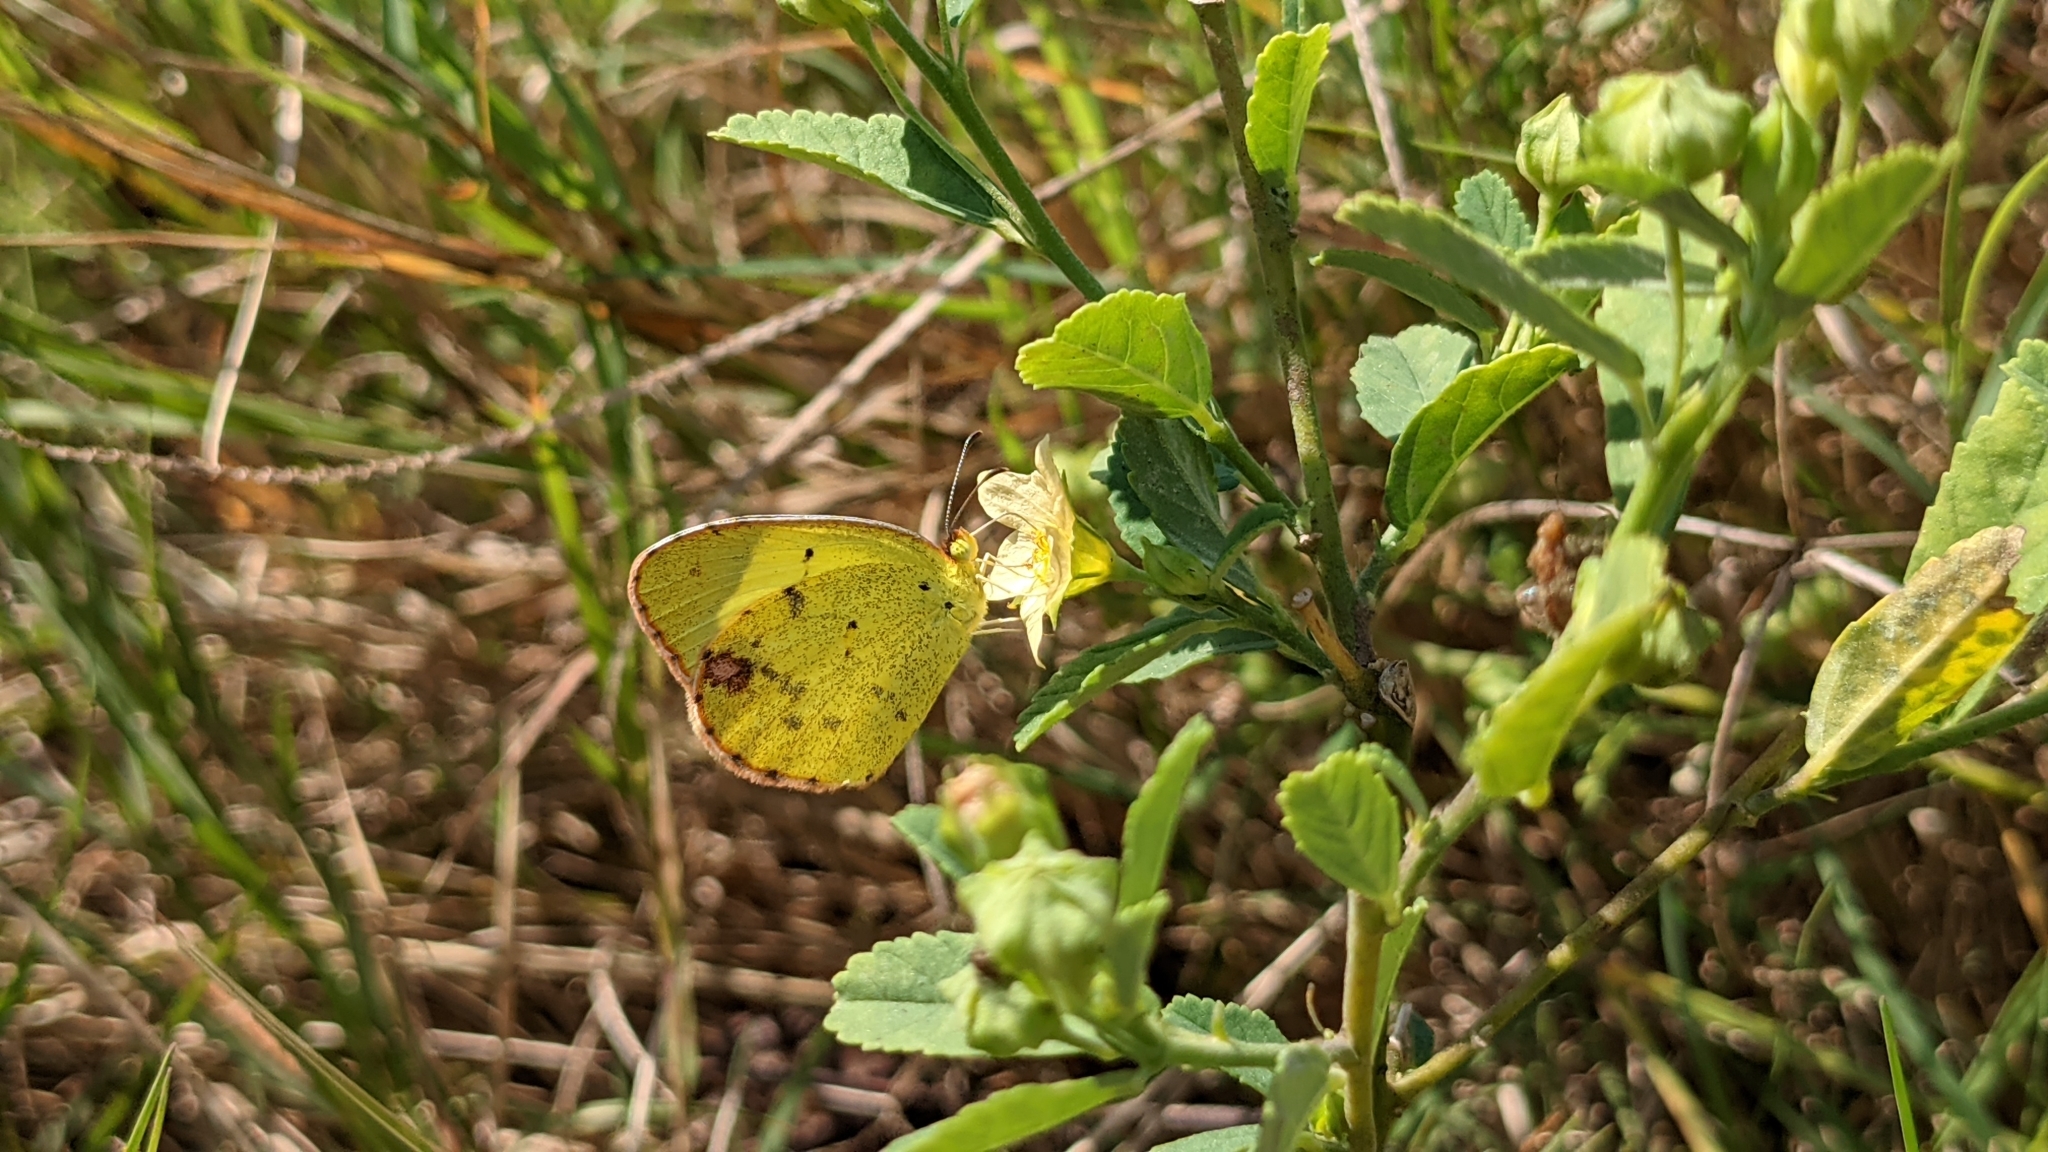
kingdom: Animalia
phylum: Arthropoda
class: Insecta
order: Lepidoptera
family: Pieridae
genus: Pyrisitia
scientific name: Pyrisitia lisa
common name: Little yellow
